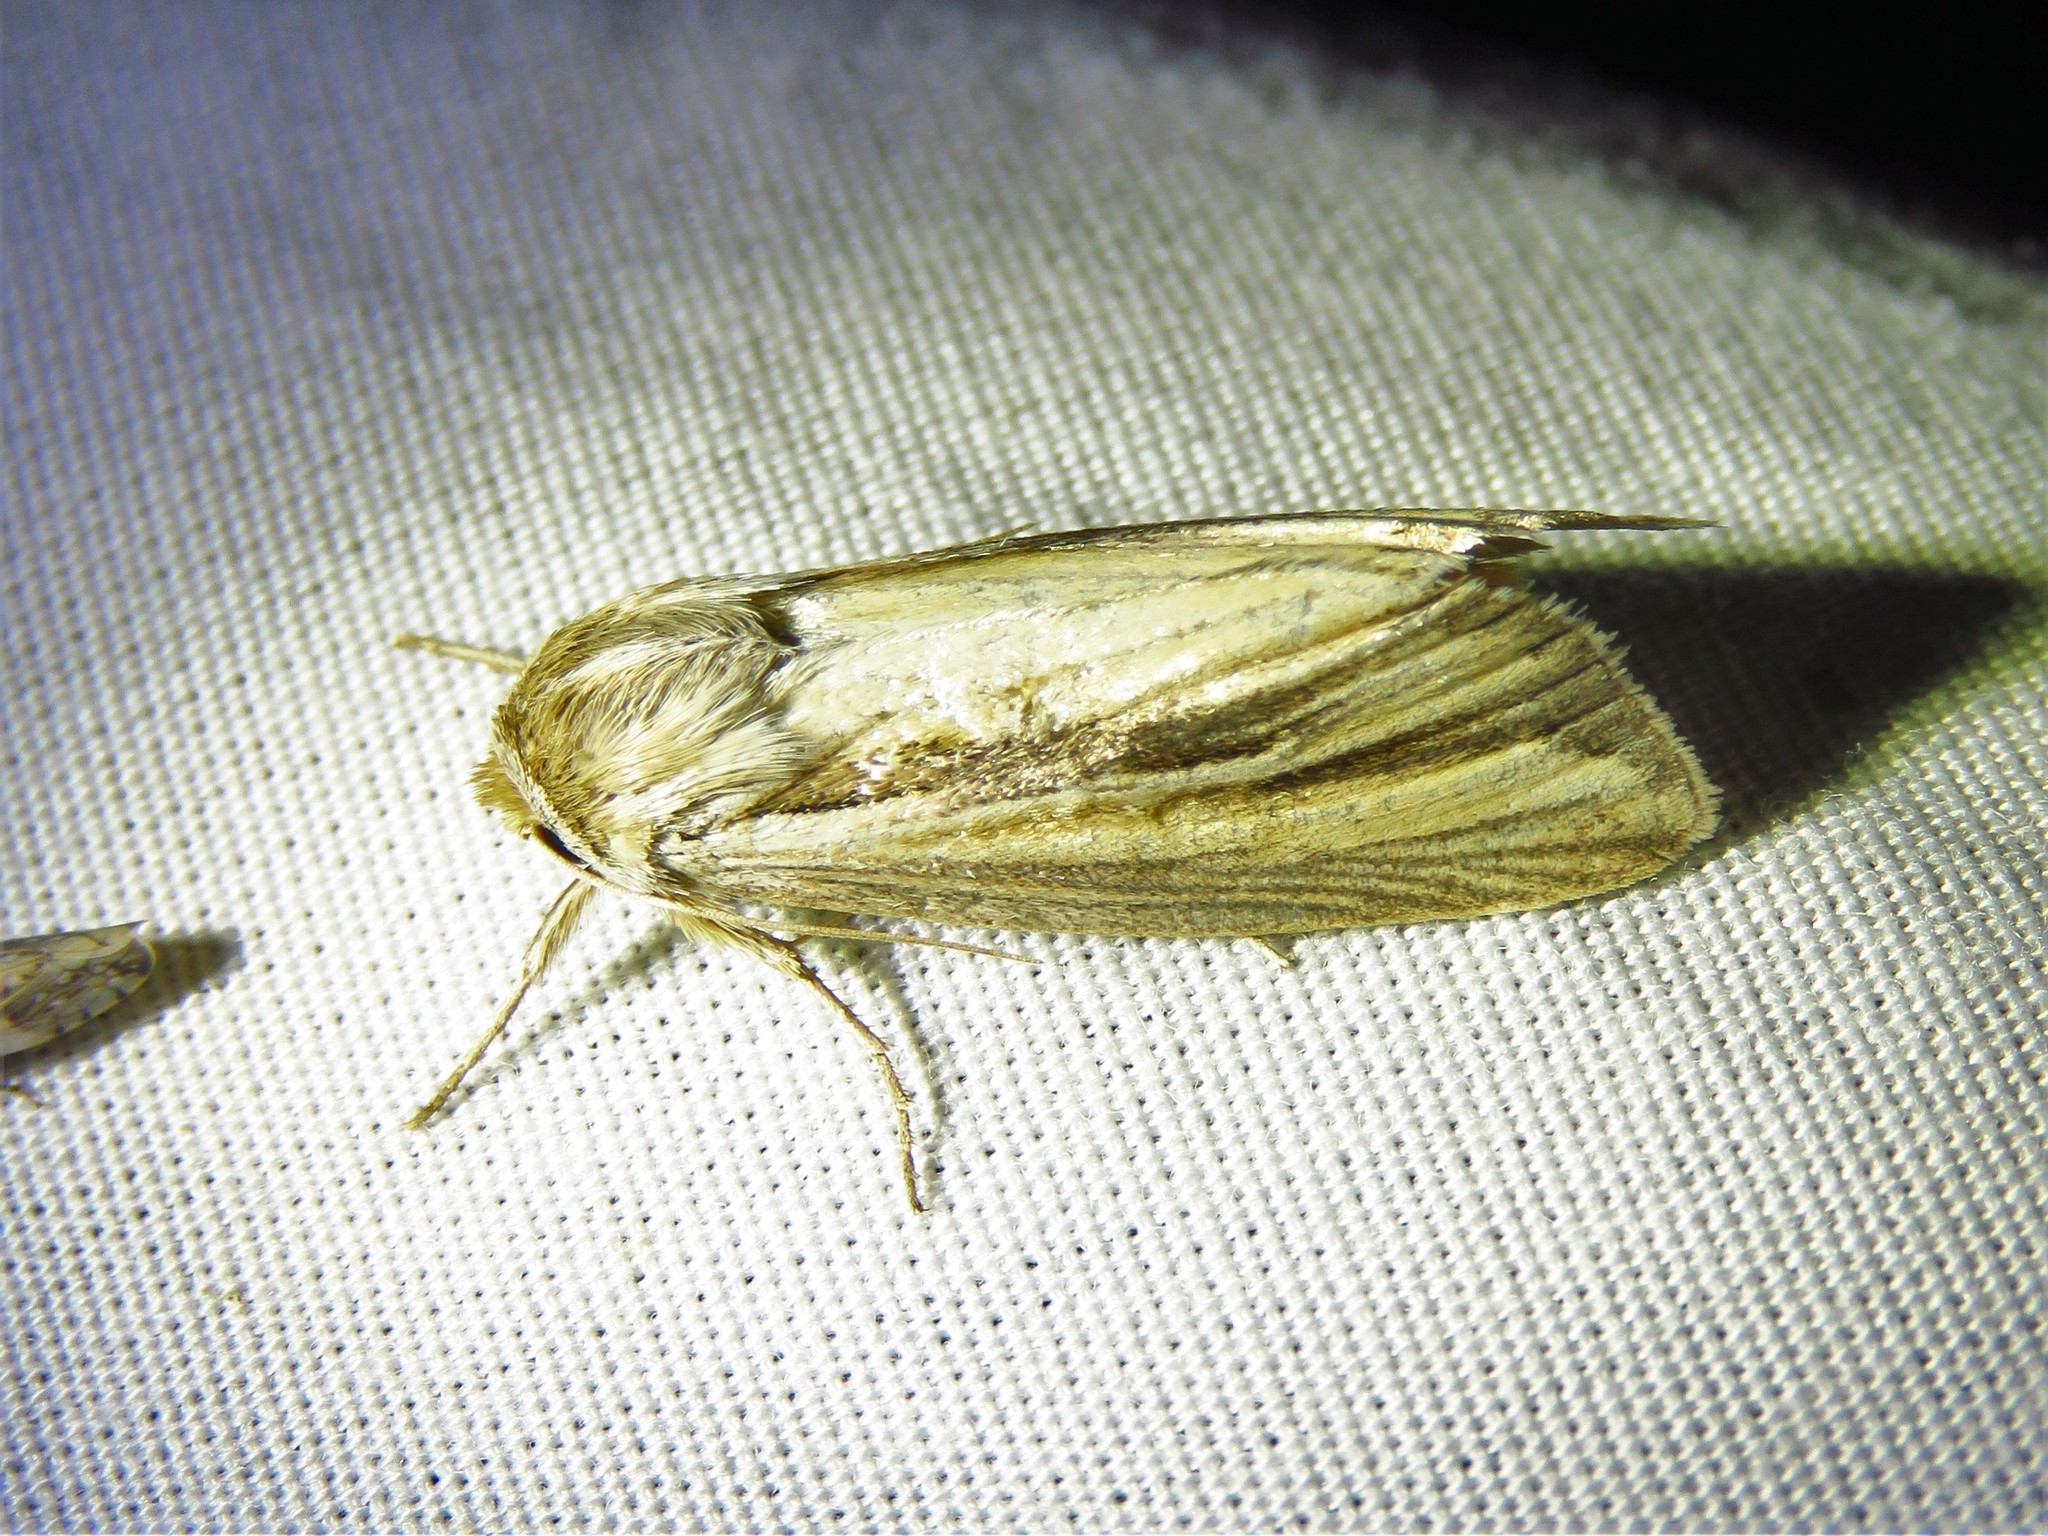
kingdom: Animalia
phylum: Arthropoda
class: Insecta
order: Lepidoptera
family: Noctuidae
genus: Dargida
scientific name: Dargida diffusa
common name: Wheat head armyworm
